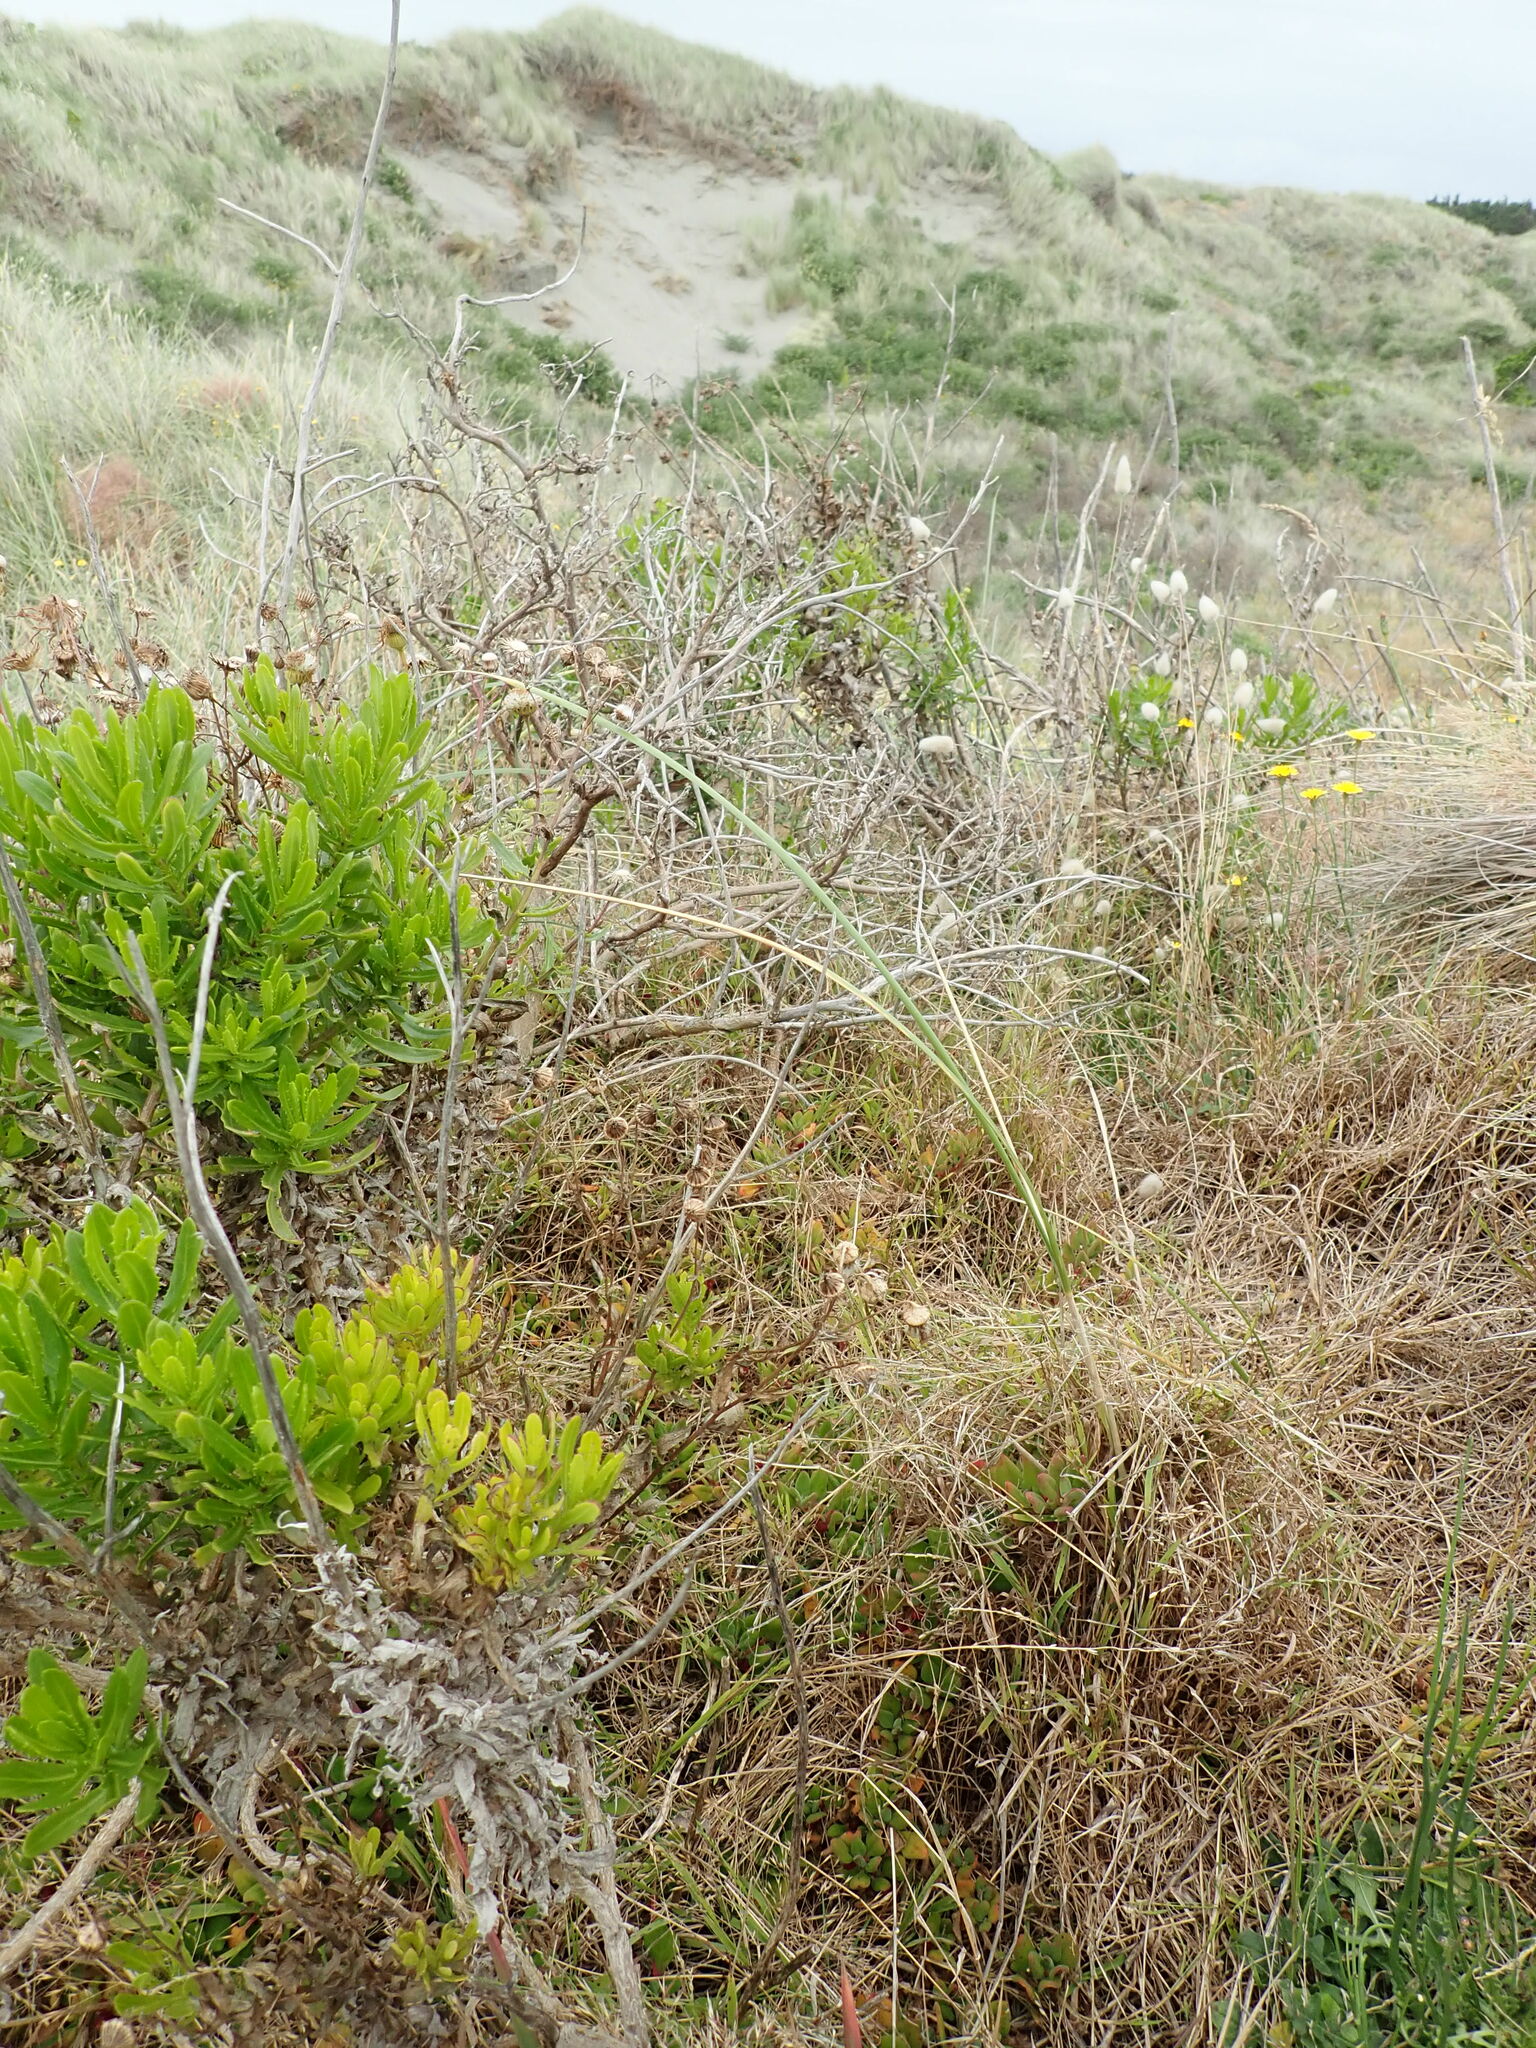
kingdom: Plantae
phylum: Tracheophyta
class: Magnoliopsida
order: Asterales
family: Asteraceae
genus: Senecio
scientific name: Senecio glastifolius
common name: Woad-leaved ragwort
